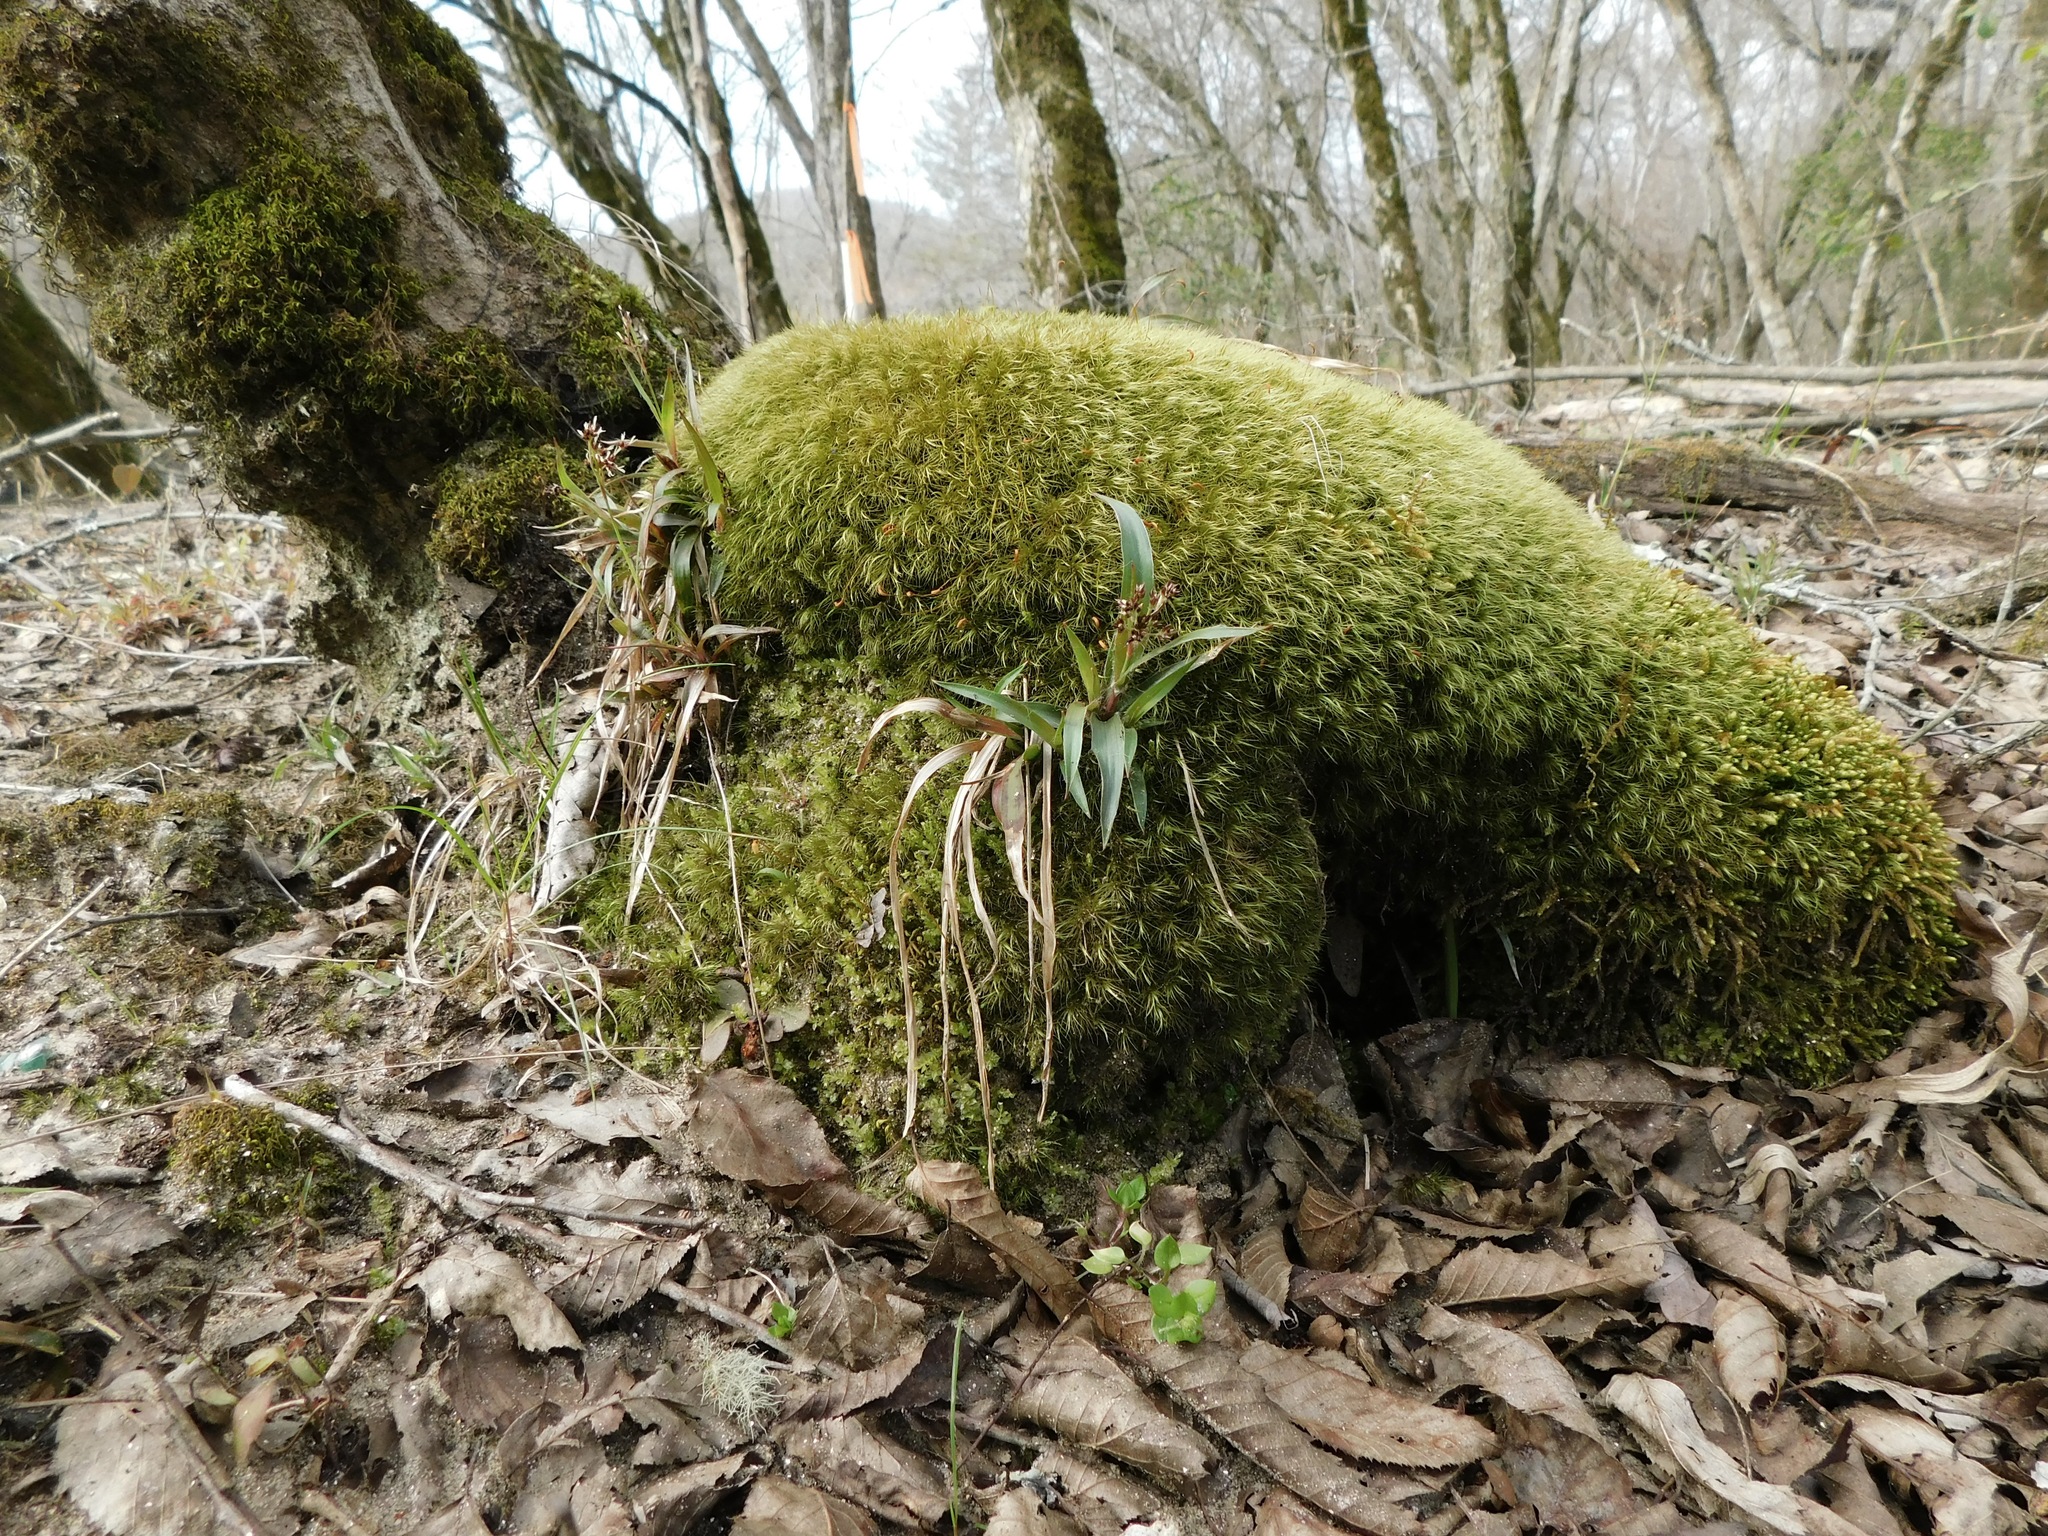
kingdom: Plantae
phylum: Tracheophyta
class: Liliopsida
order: Poales
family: Juncaceae
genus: Luzula
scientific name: Luzula echinata
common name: Hedgehog woodrush
